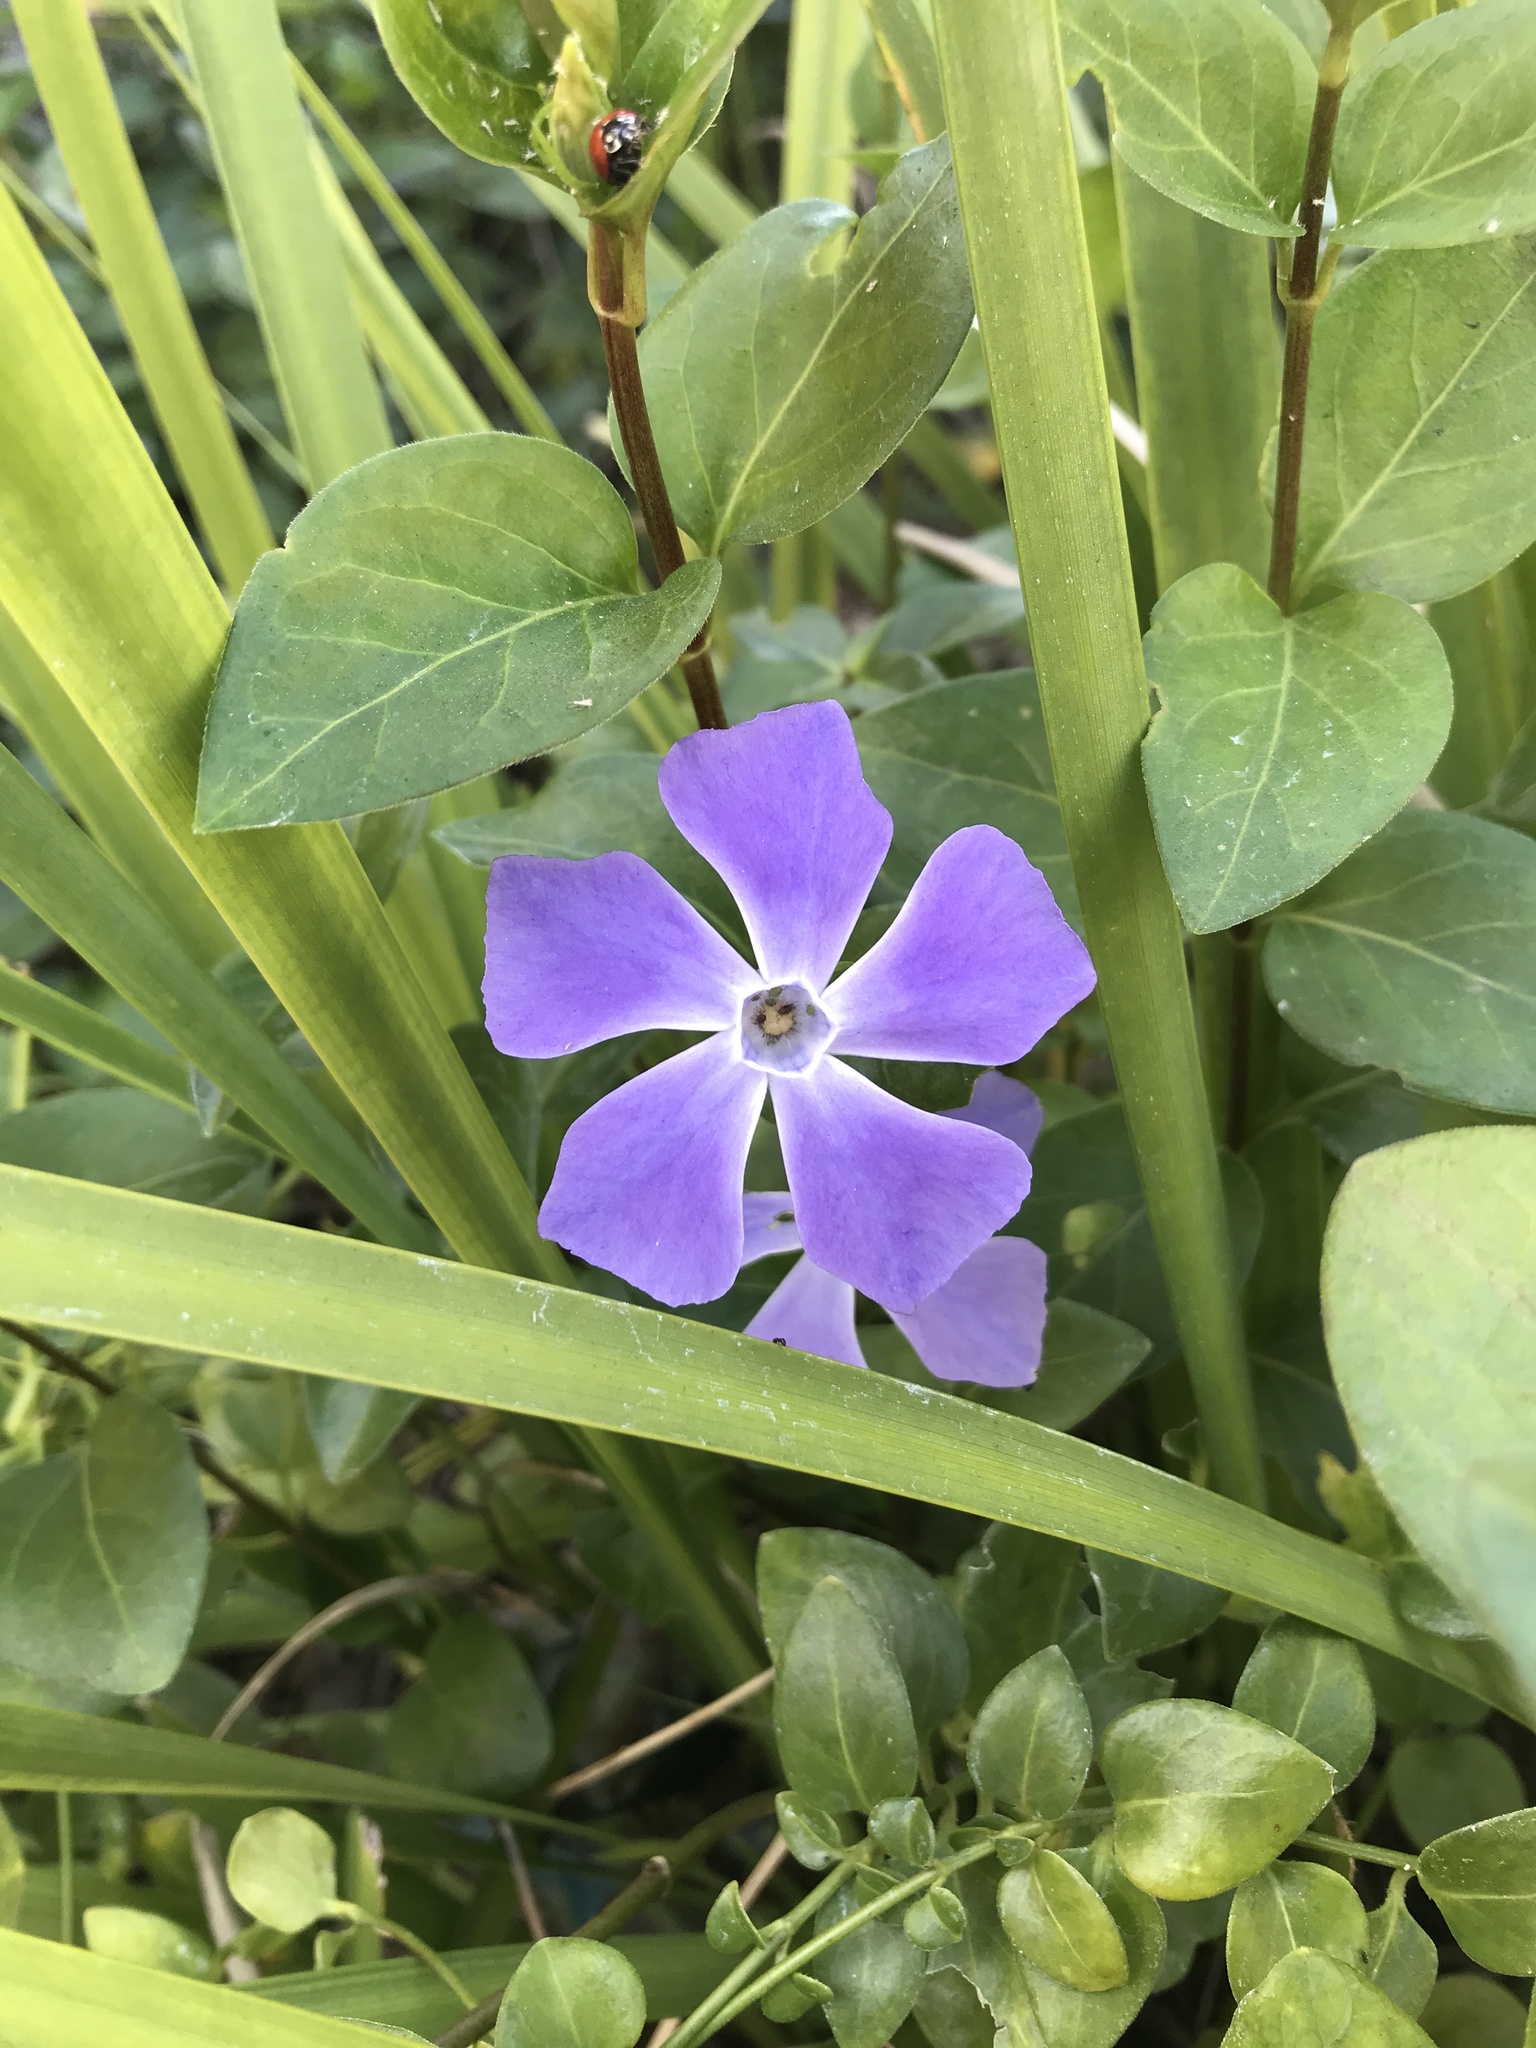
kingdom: Plantae
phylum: Tracheophyta
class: Magnoliopsida
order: Gentianales
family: Apocynaceae
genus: Vinca
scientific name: Vinca major
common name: Greater periwinkle
